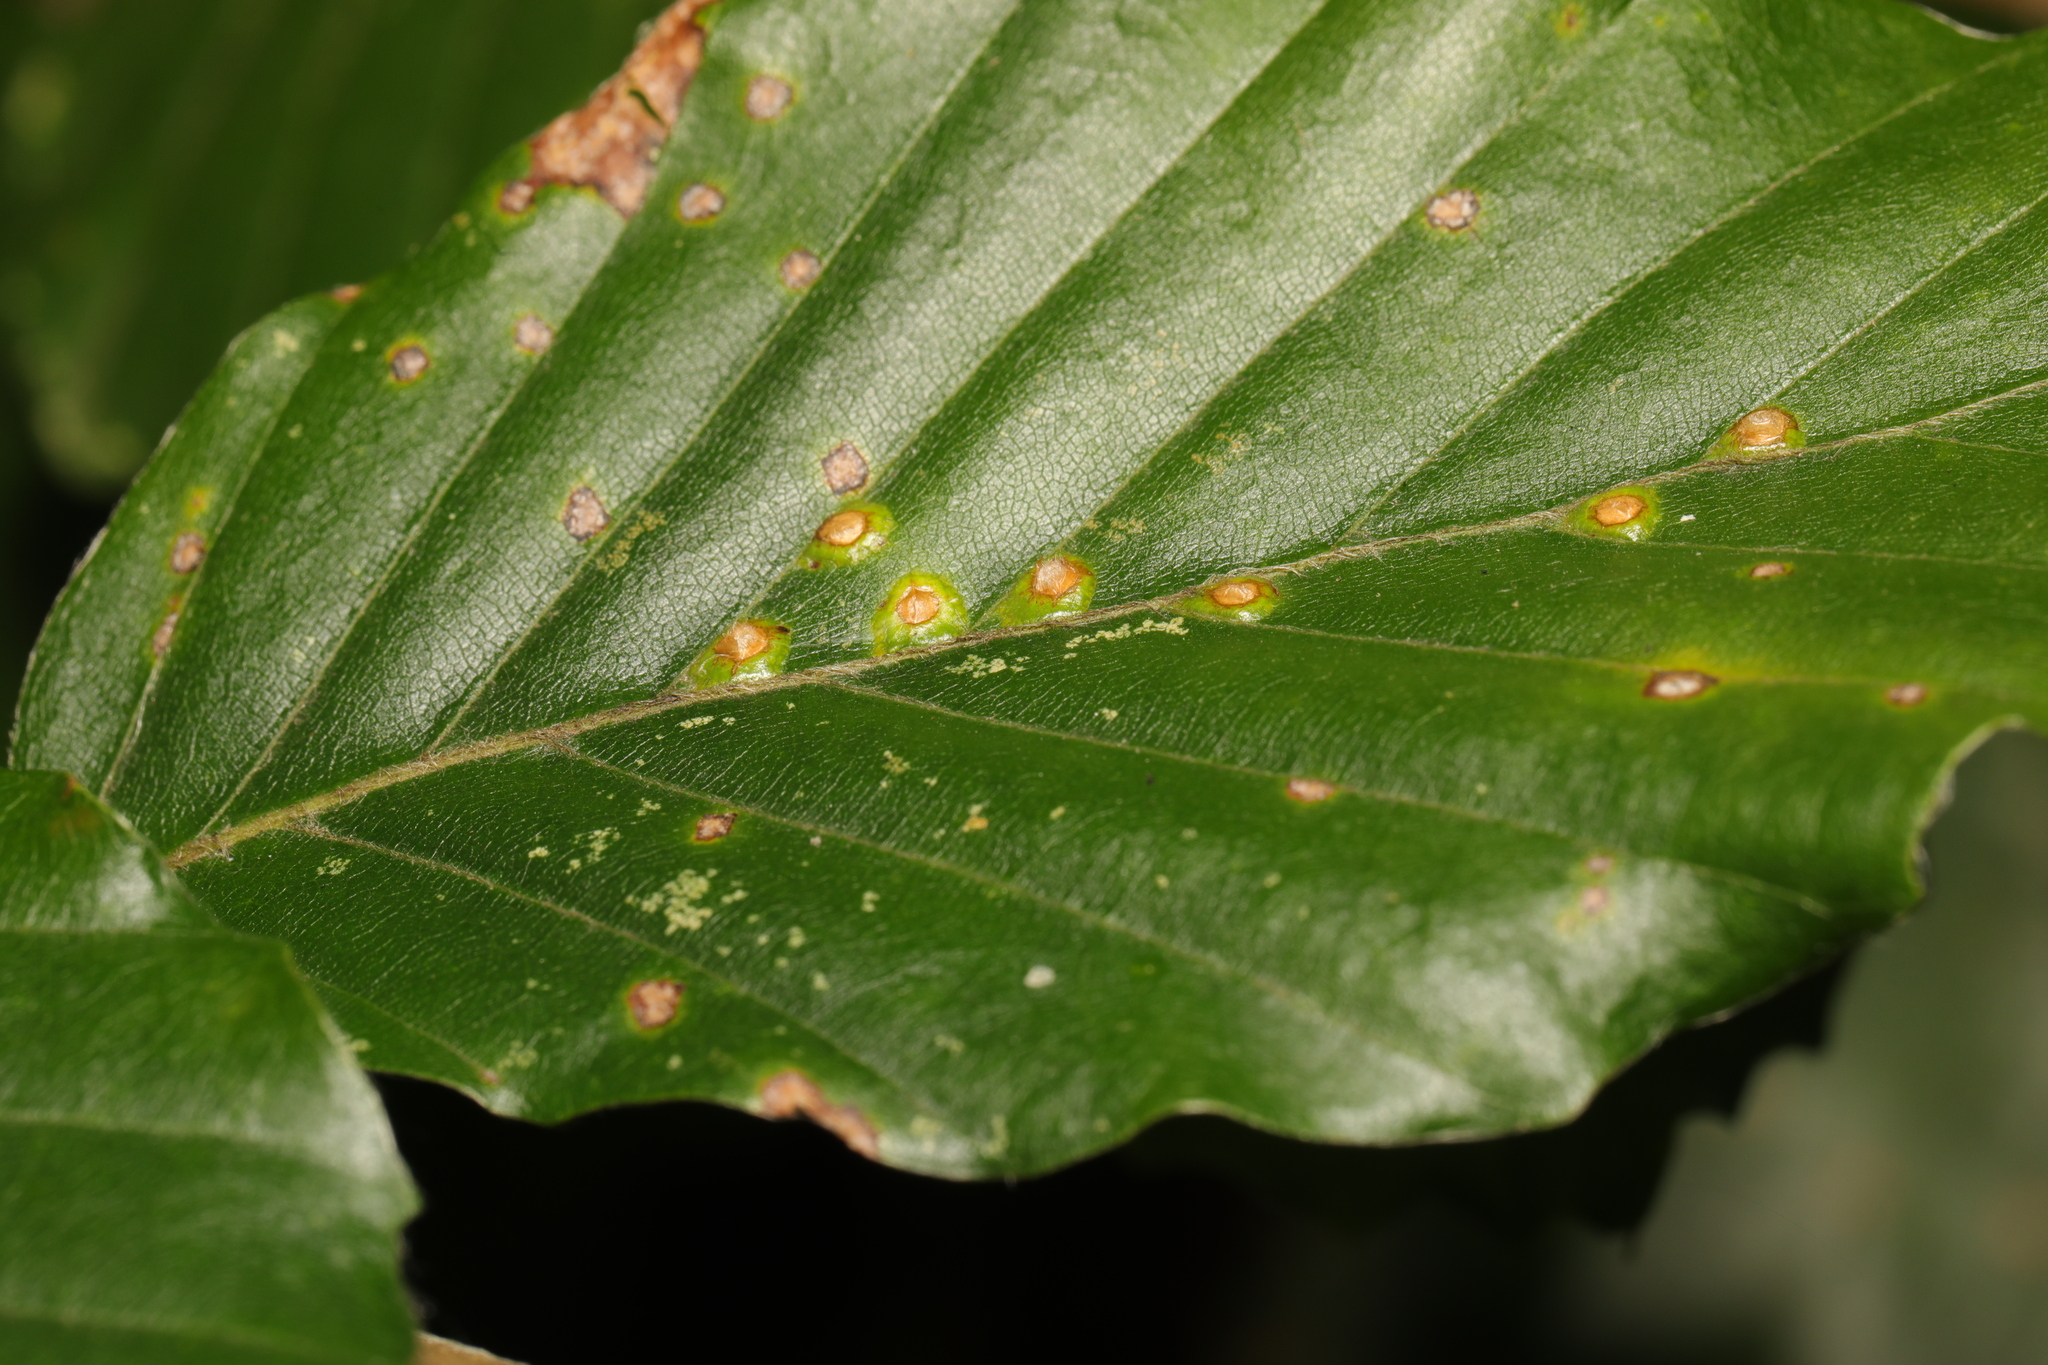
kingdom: Animalia
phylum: Arthropoda
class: Insecta
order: Diptera
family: Cecidomyiidae
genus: Hartigiola
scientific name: Hartigiola annulipes
